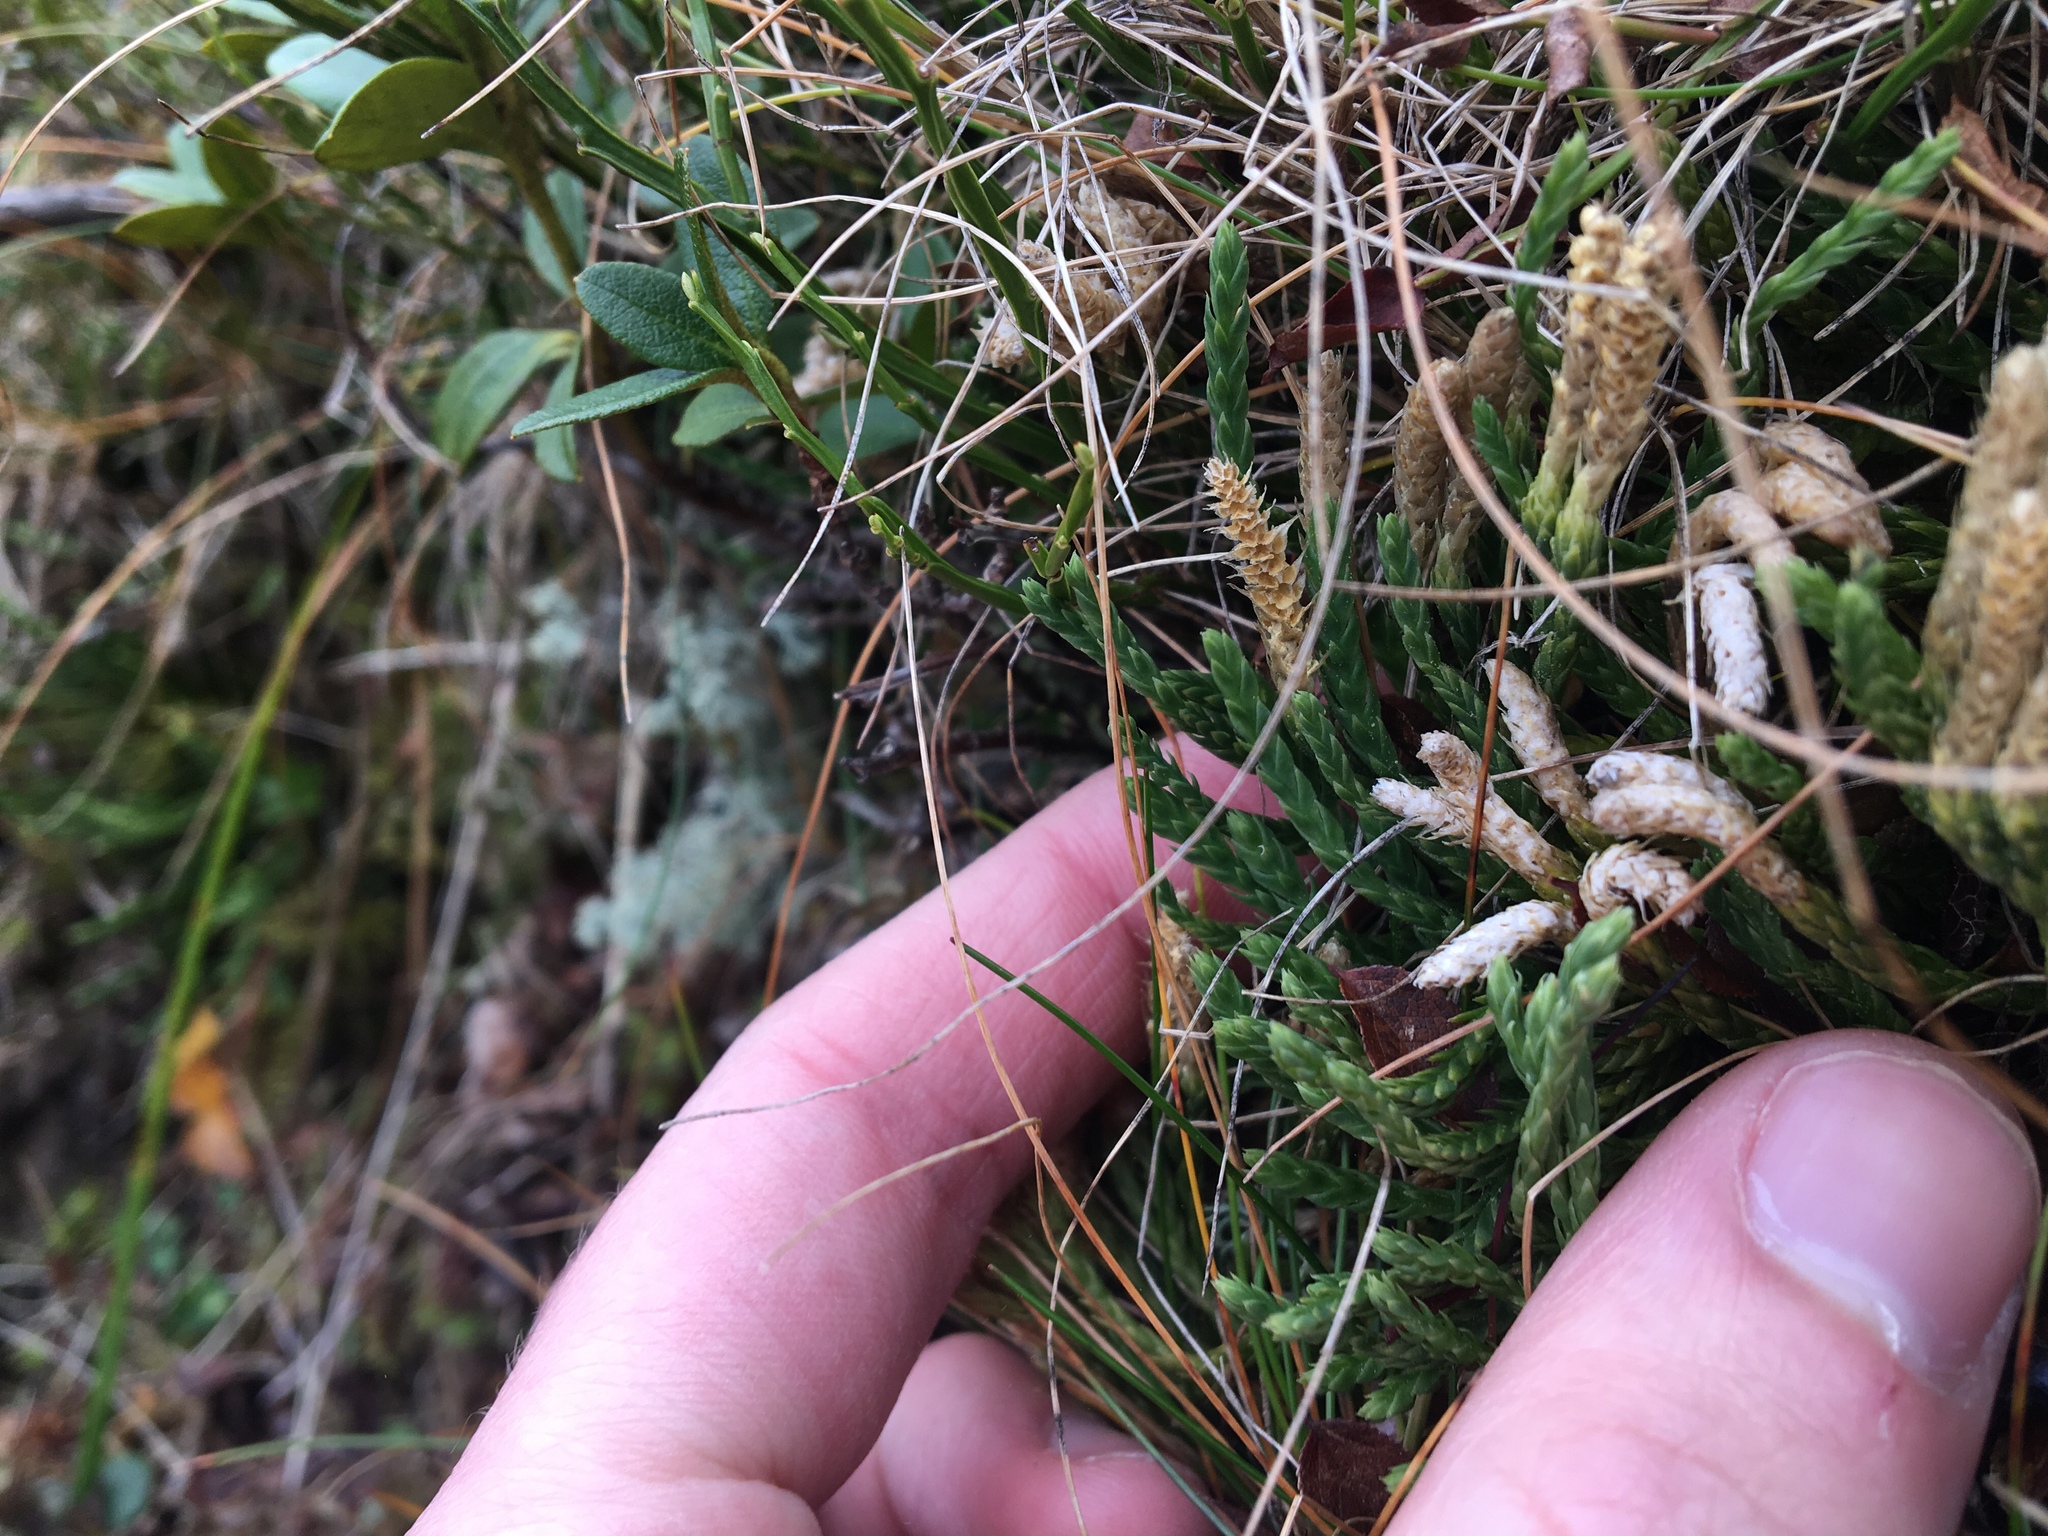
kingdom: Plantae
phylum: Tracheophyta
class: Lycopodiopsida
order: Lycopodiales
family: Lycopodiaceae
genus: Diphasiastrum
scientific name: Diphasiastrum alpinum
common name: Alpine clubmoss
